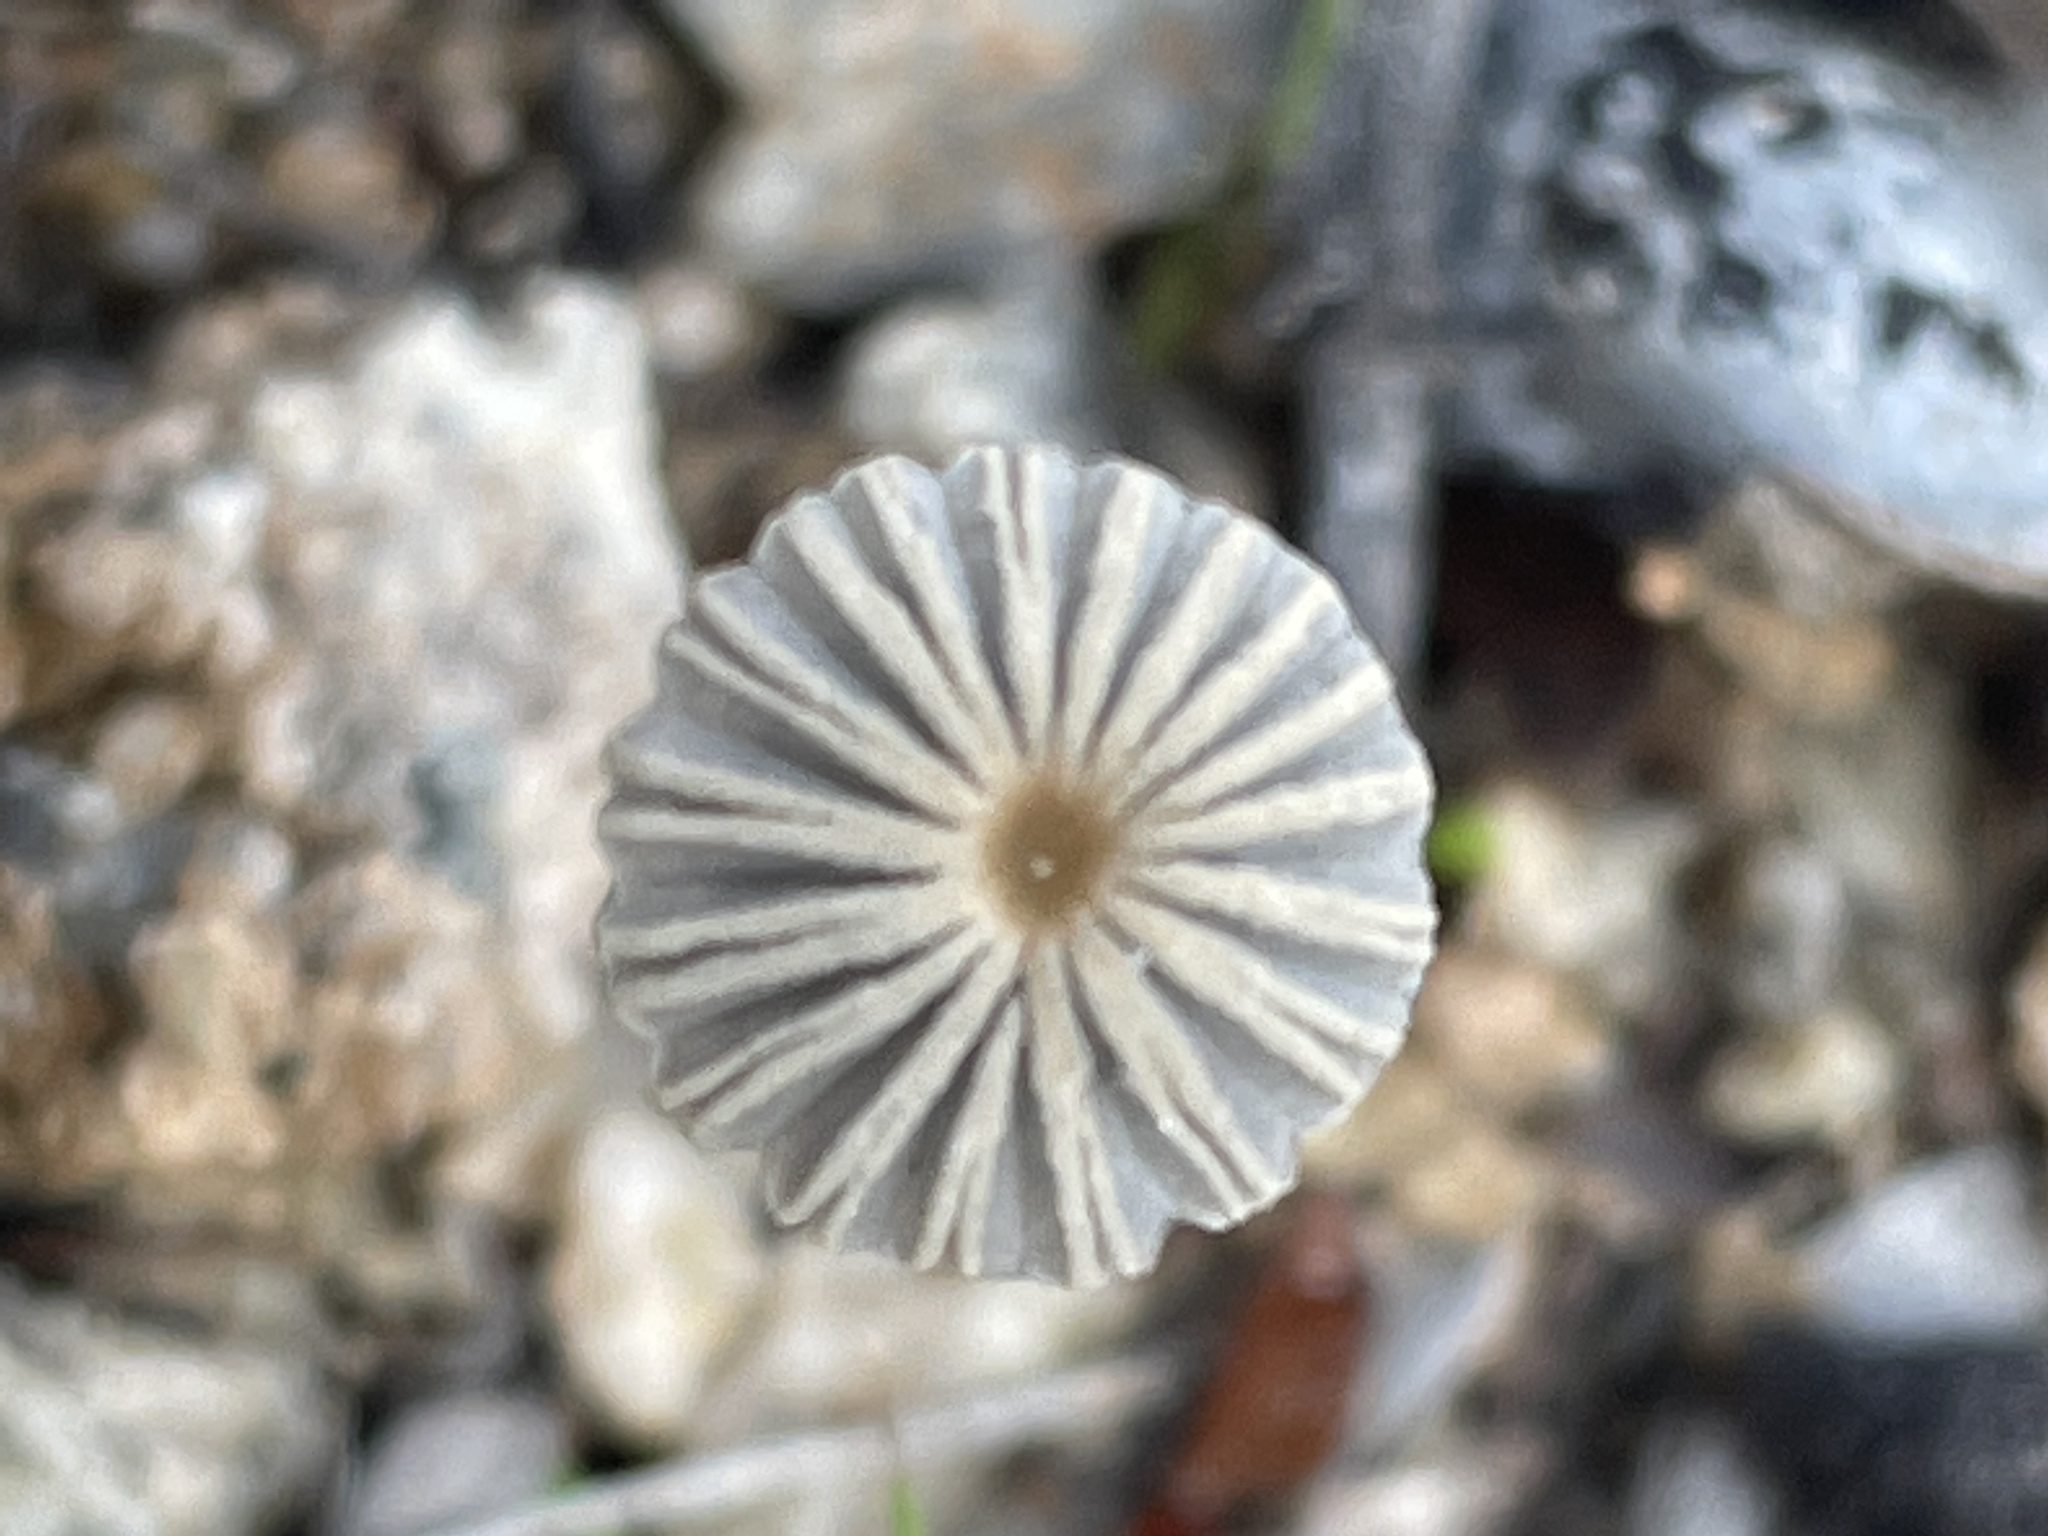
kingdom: Fungi
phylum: Basidiomycota
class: Agaricomycetes
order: Agaricales
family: Psathyrellaceae
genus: Parasola
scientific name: Parasola auricoma
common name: Goldenhaired inkcap
